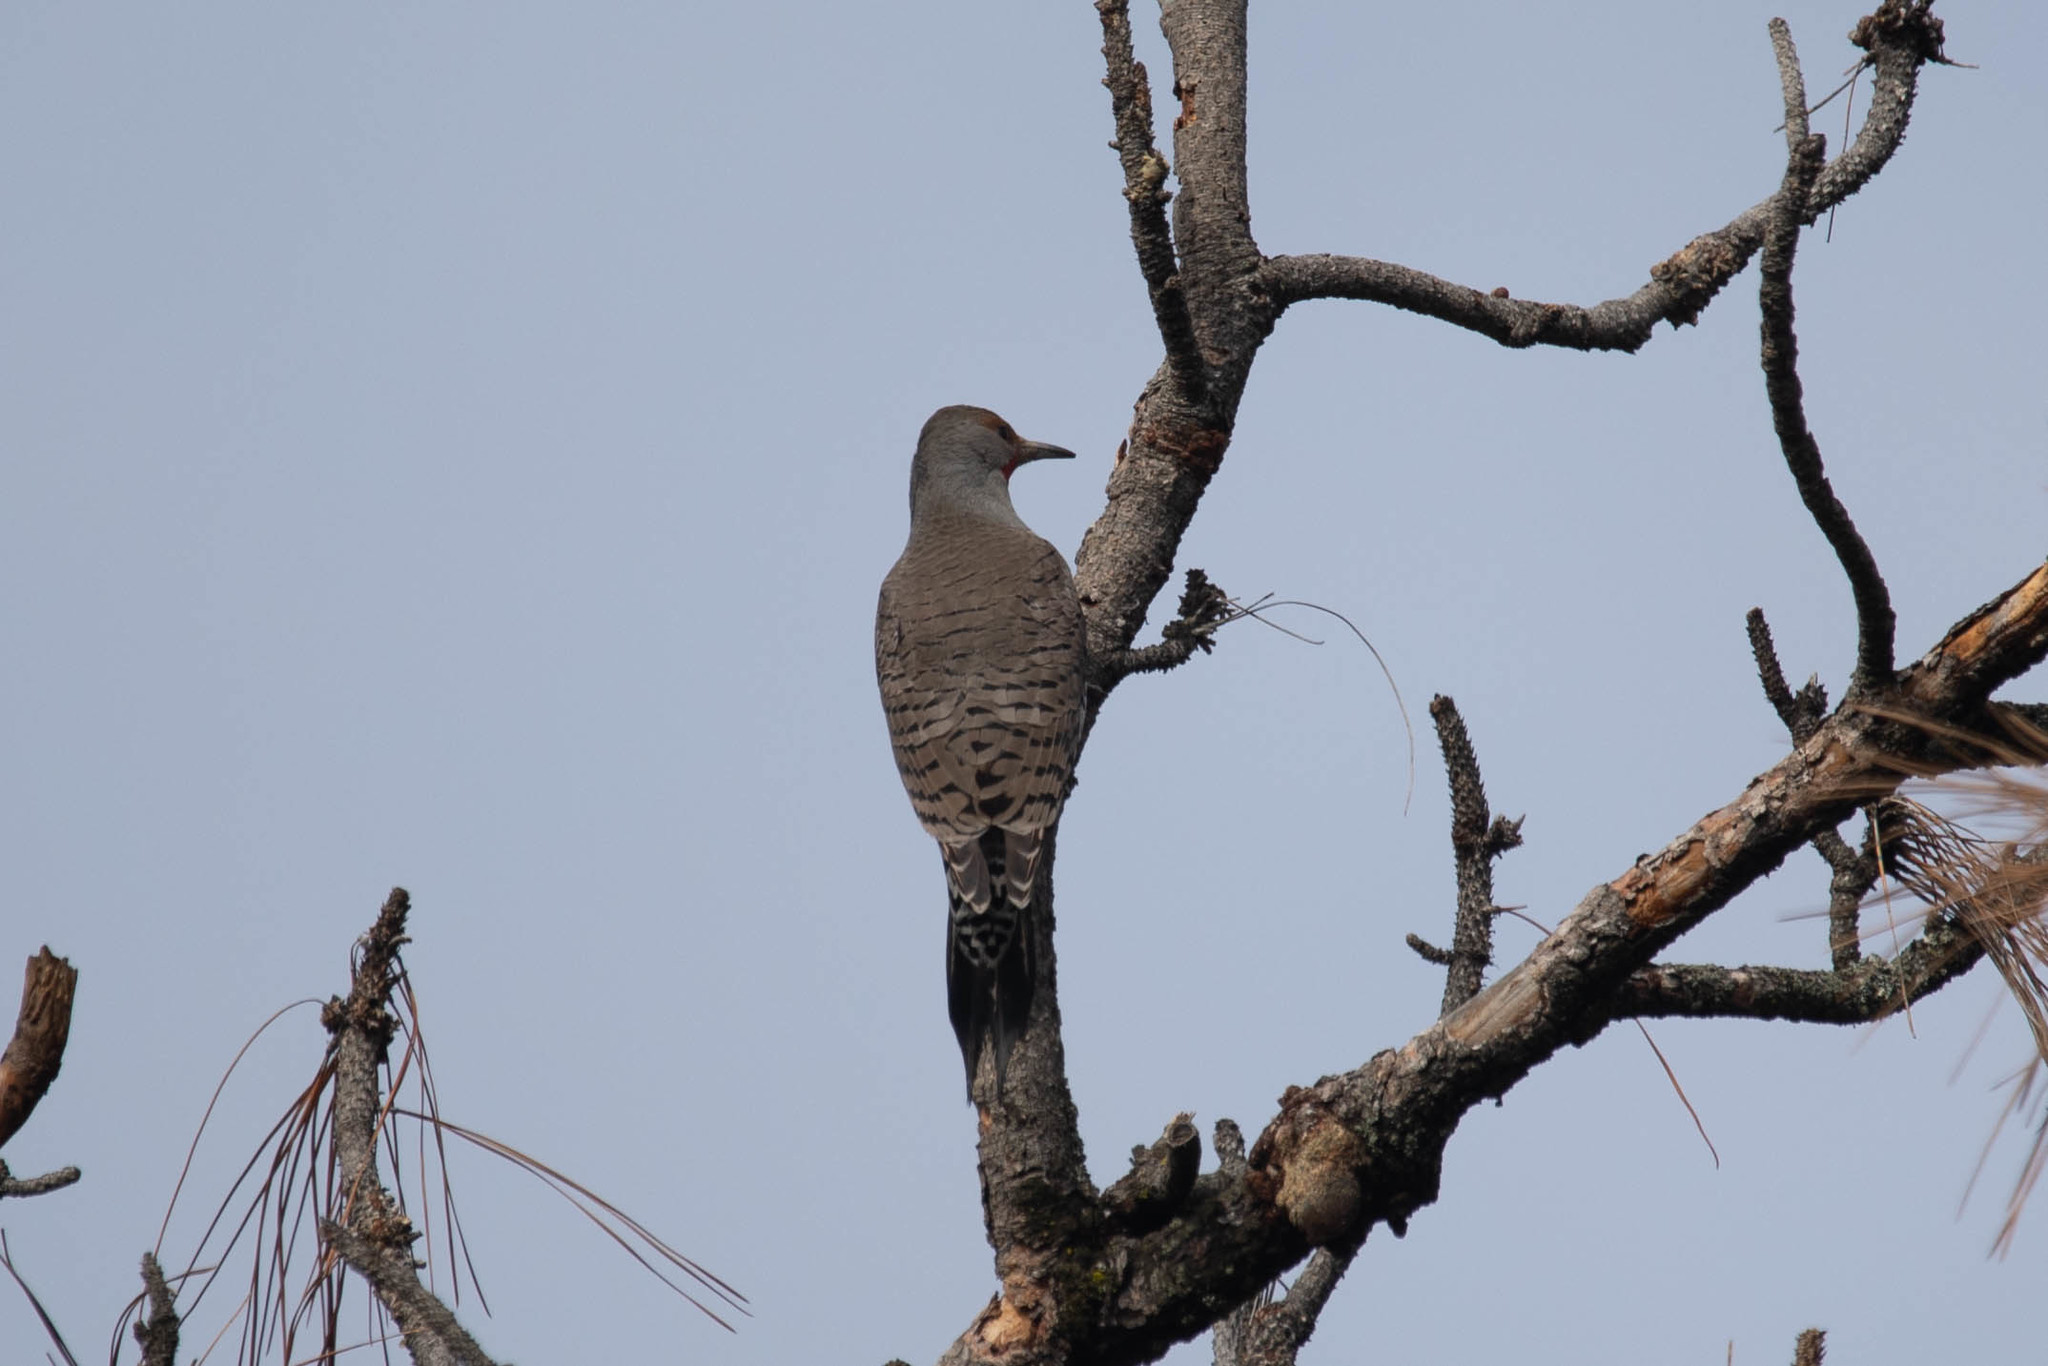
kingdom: Animalia
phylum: Chordata
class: Aves
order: Piciformes
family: Picidae
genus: Colaptes
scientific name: Colaptes auratus
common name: Northern flicker
